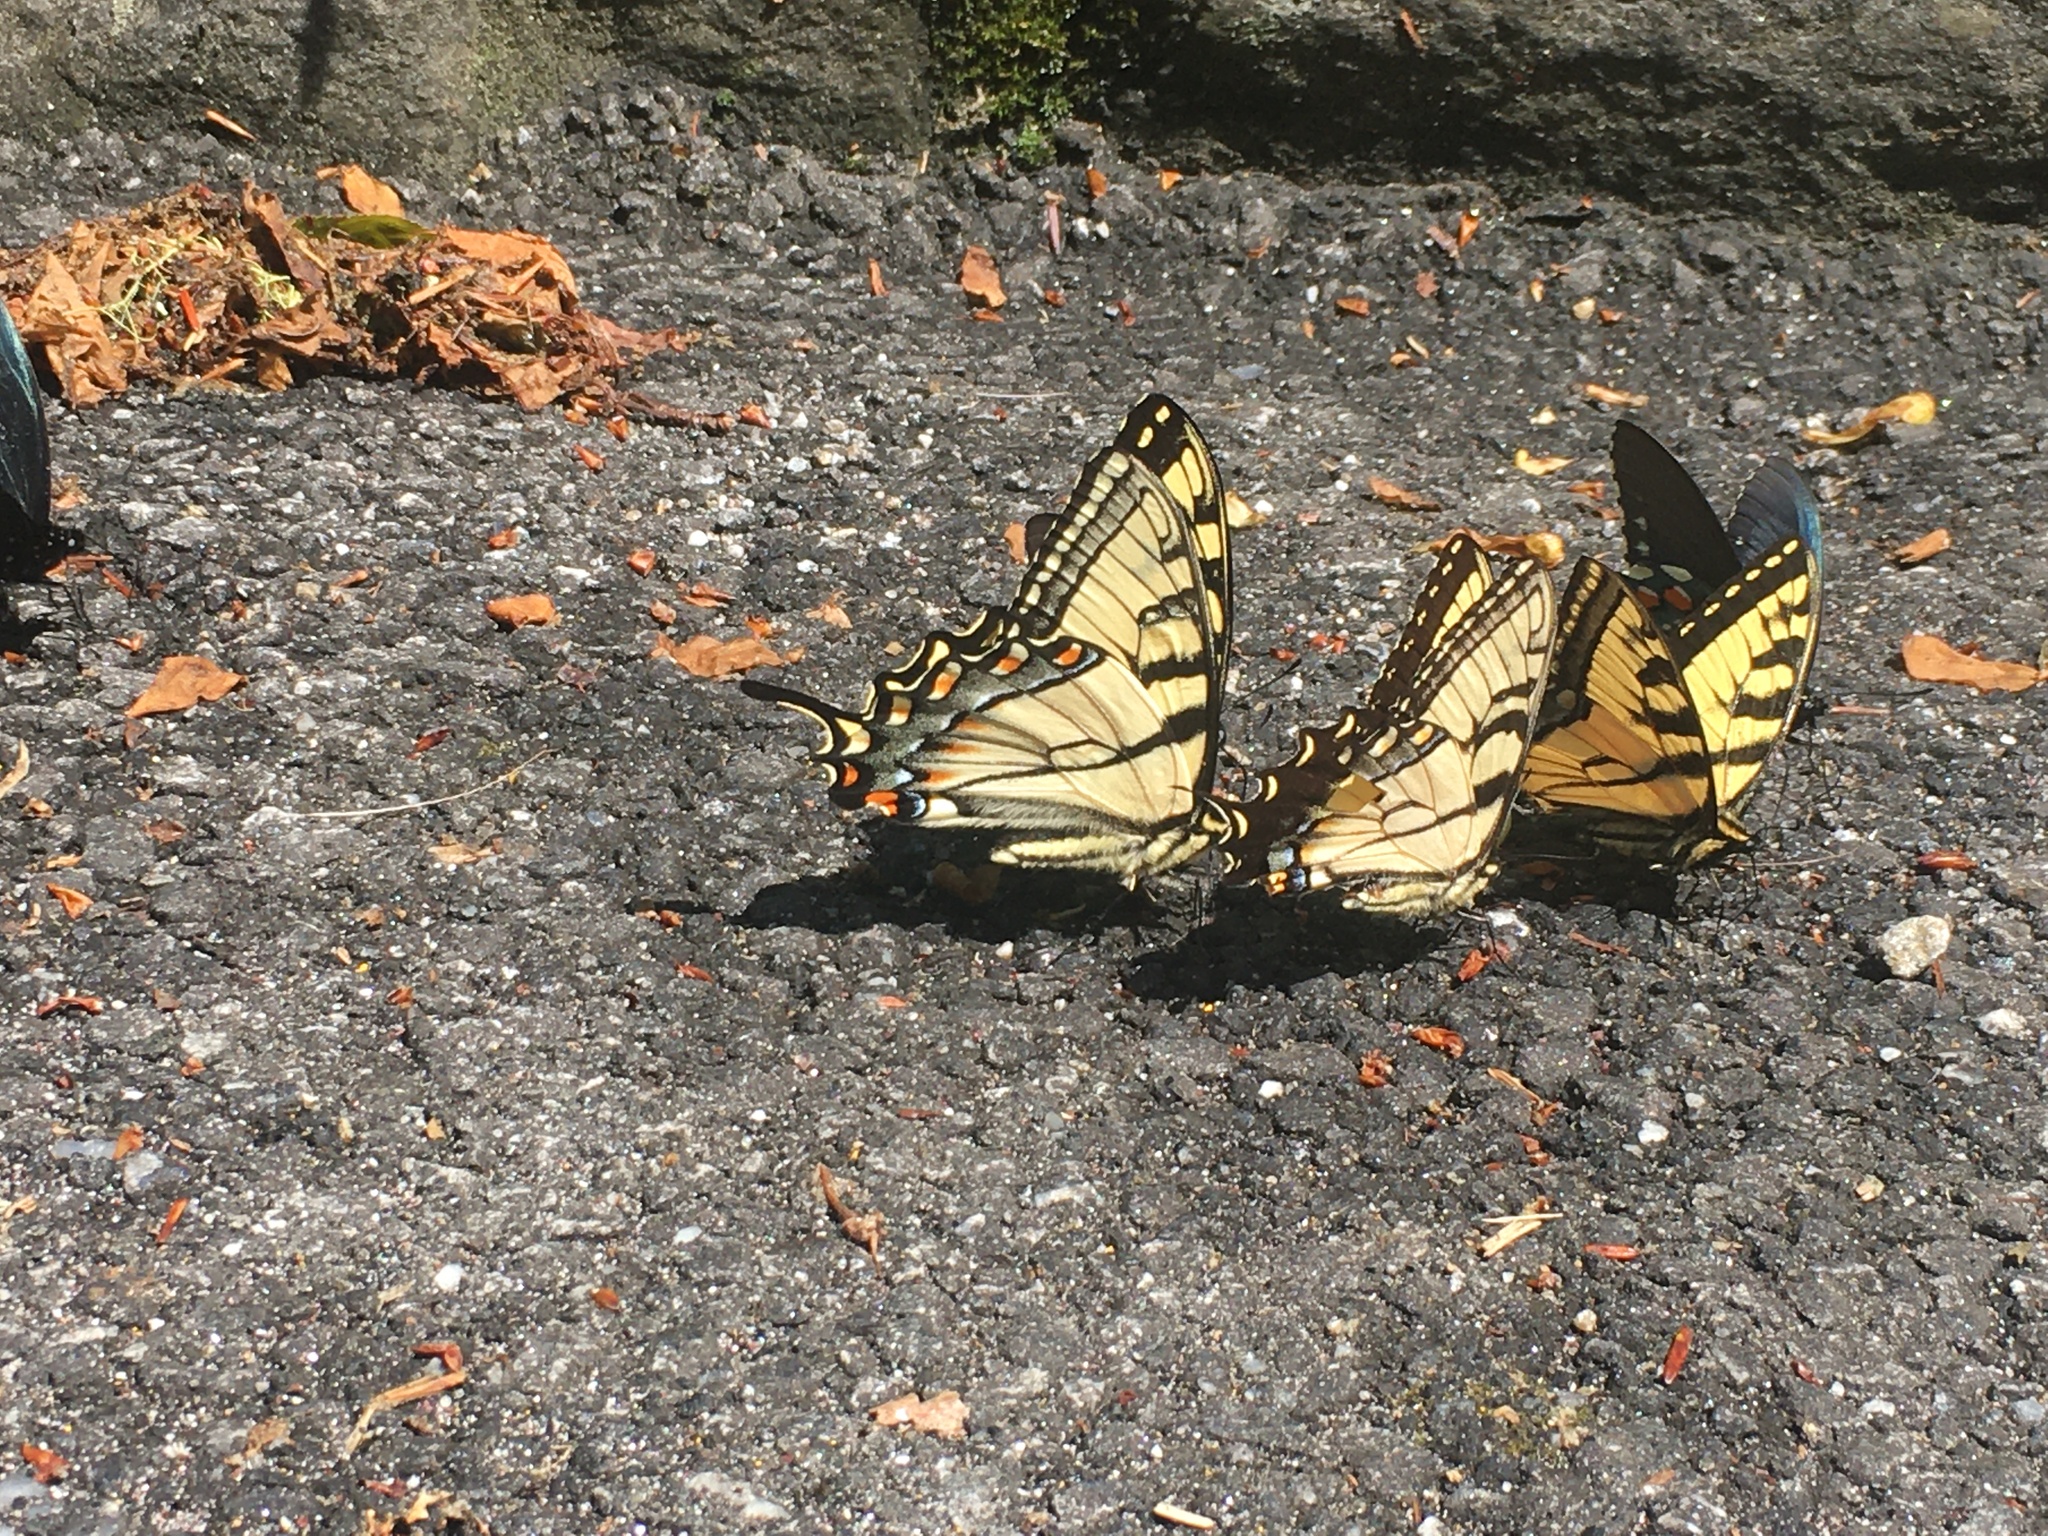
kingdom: Animalia
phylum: Arthropoda
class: Insecta
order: Lepidoptera
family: Papilionidae
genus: Papilio
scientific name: Papilio appalachiensis
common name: Appalachian tiger swallowtail
